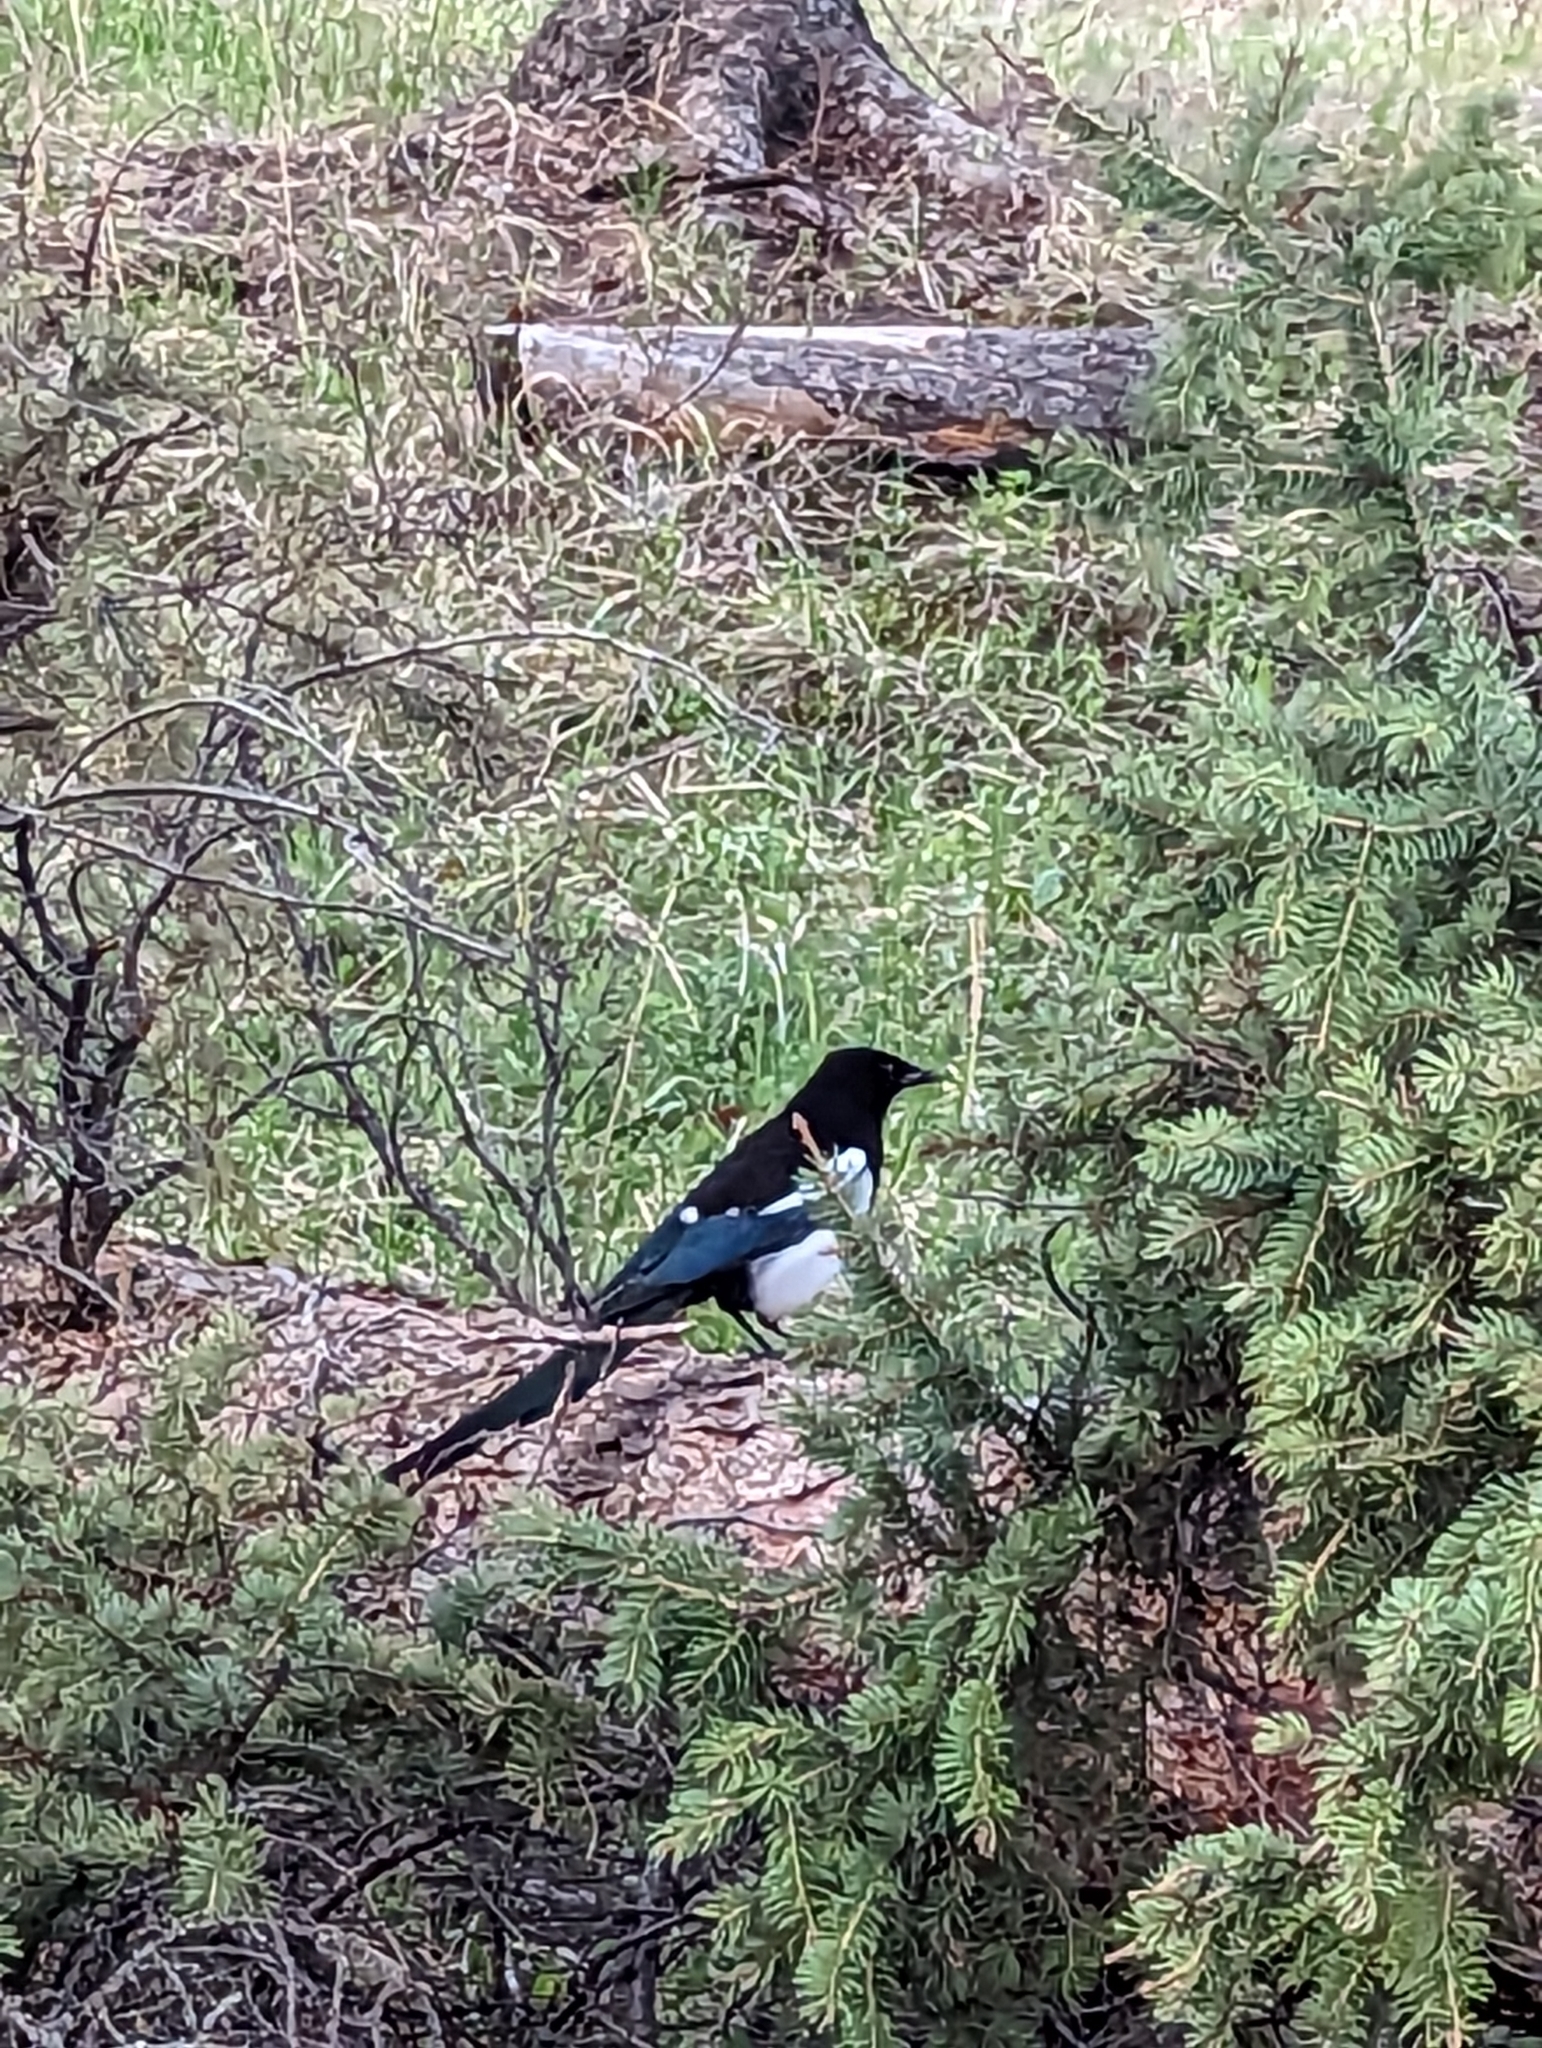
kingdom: Animalia
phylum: Chordata
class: Aves
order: Passeriformes
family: Corvidae
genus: Pica
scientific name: Pica hudsonia
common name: Black-billed magpie
